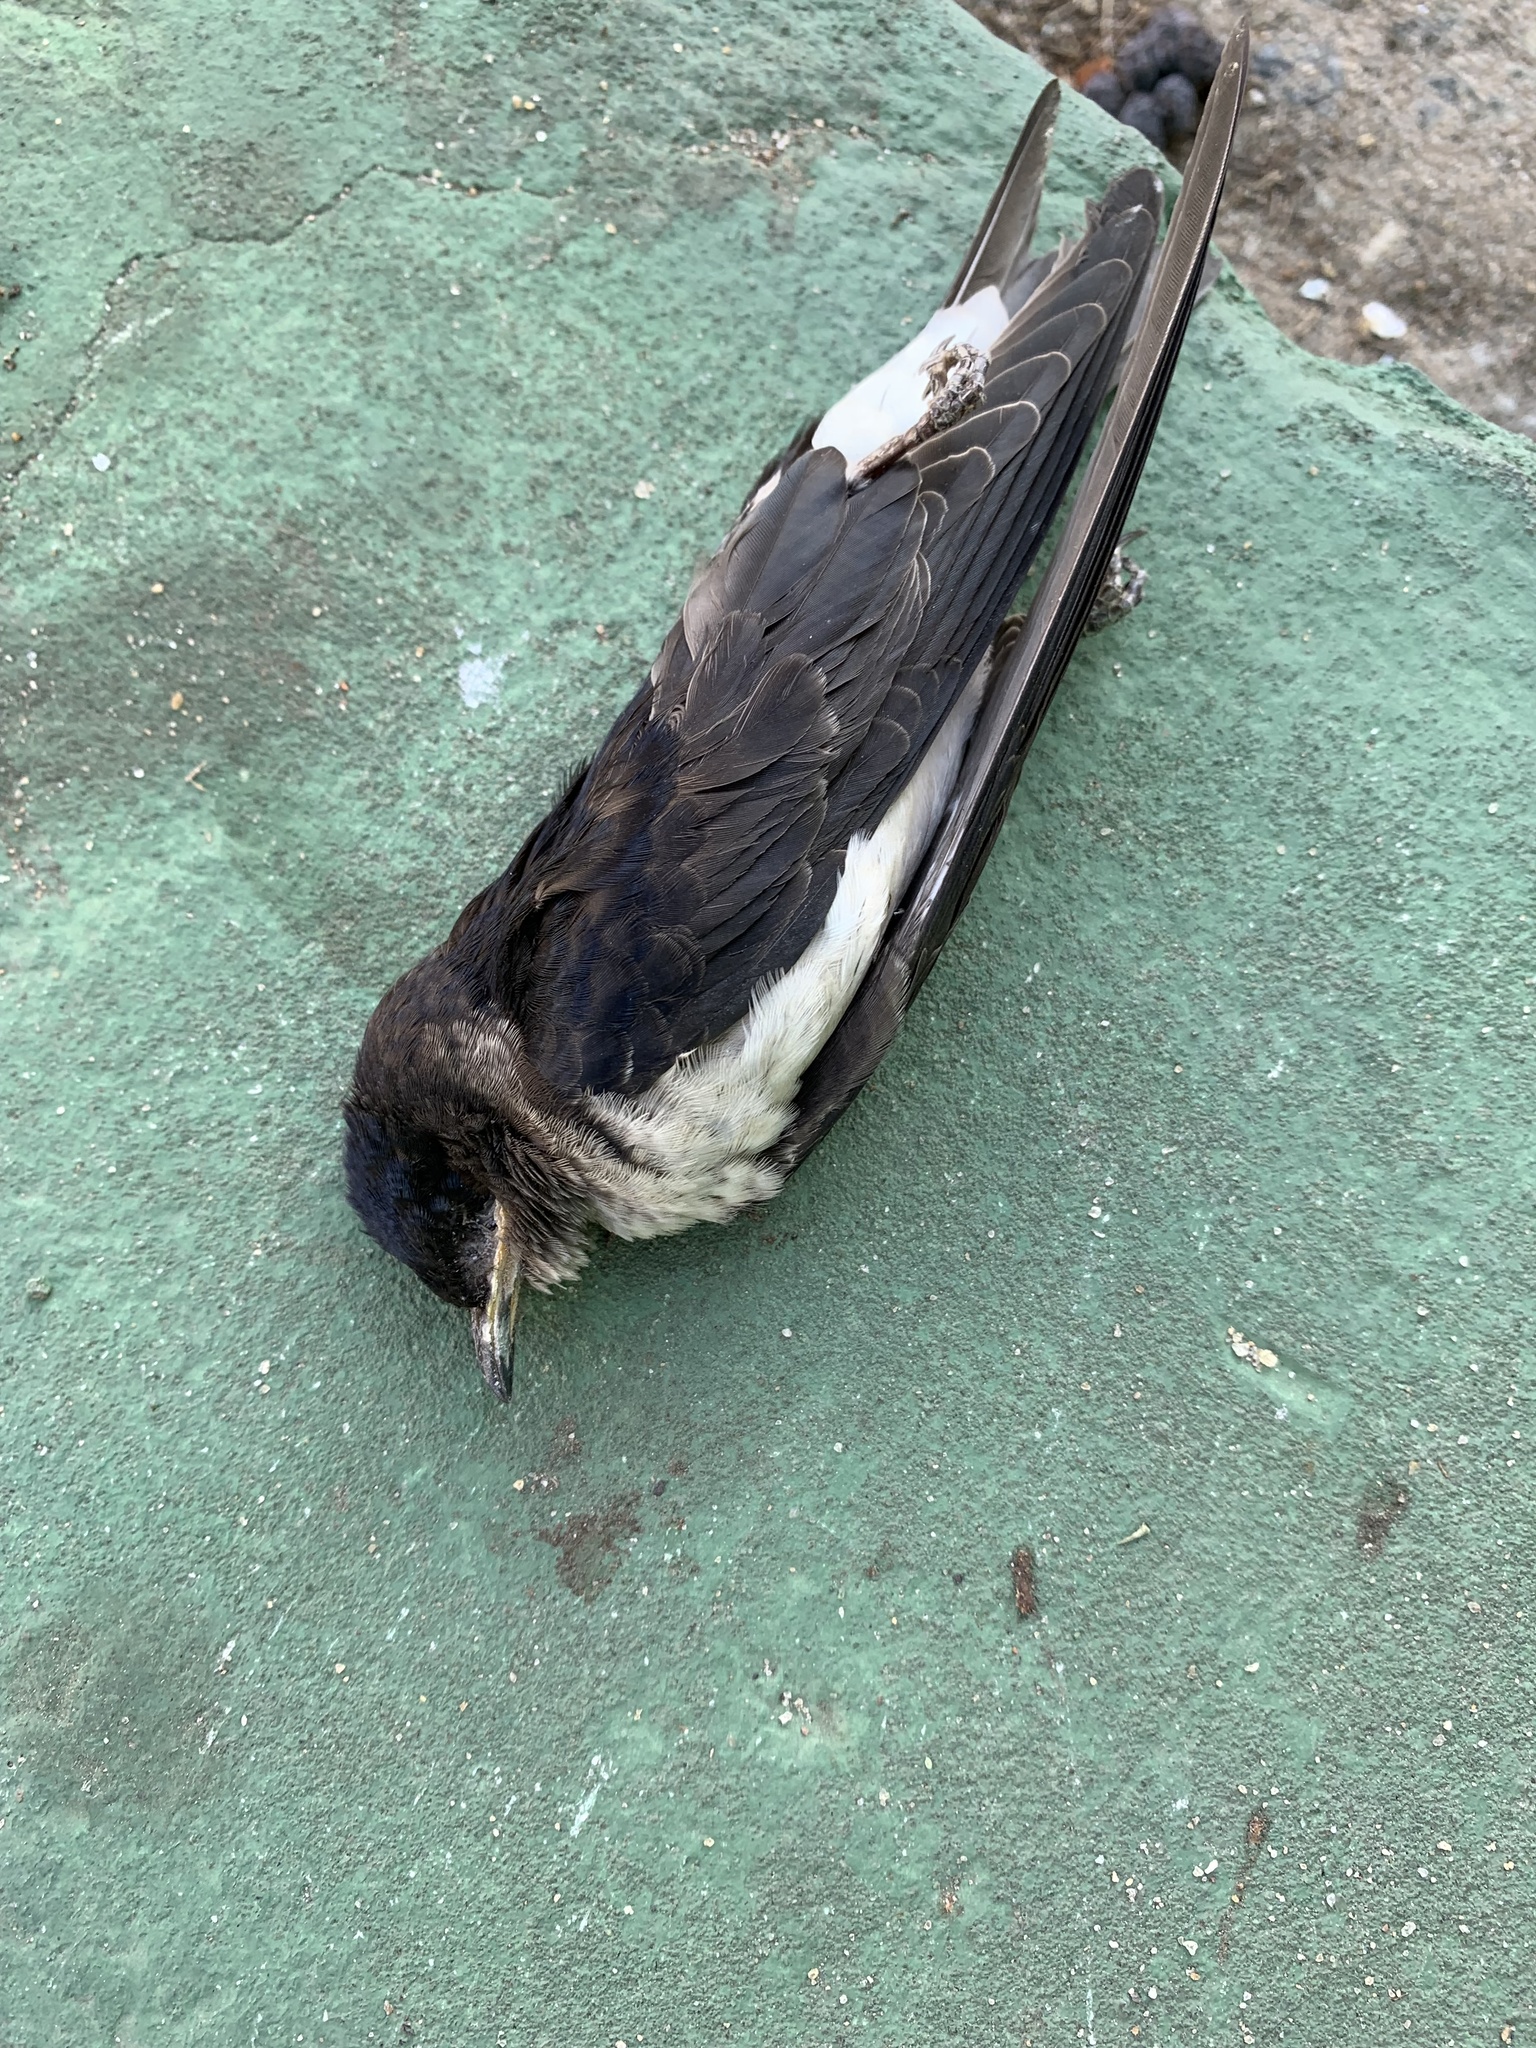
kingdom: Animalia
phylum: Chordata
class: Aves
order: Passeriformes
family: Hirundinidae
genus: Progne
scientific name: Progne chalybea
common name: Grey-breasted martin
